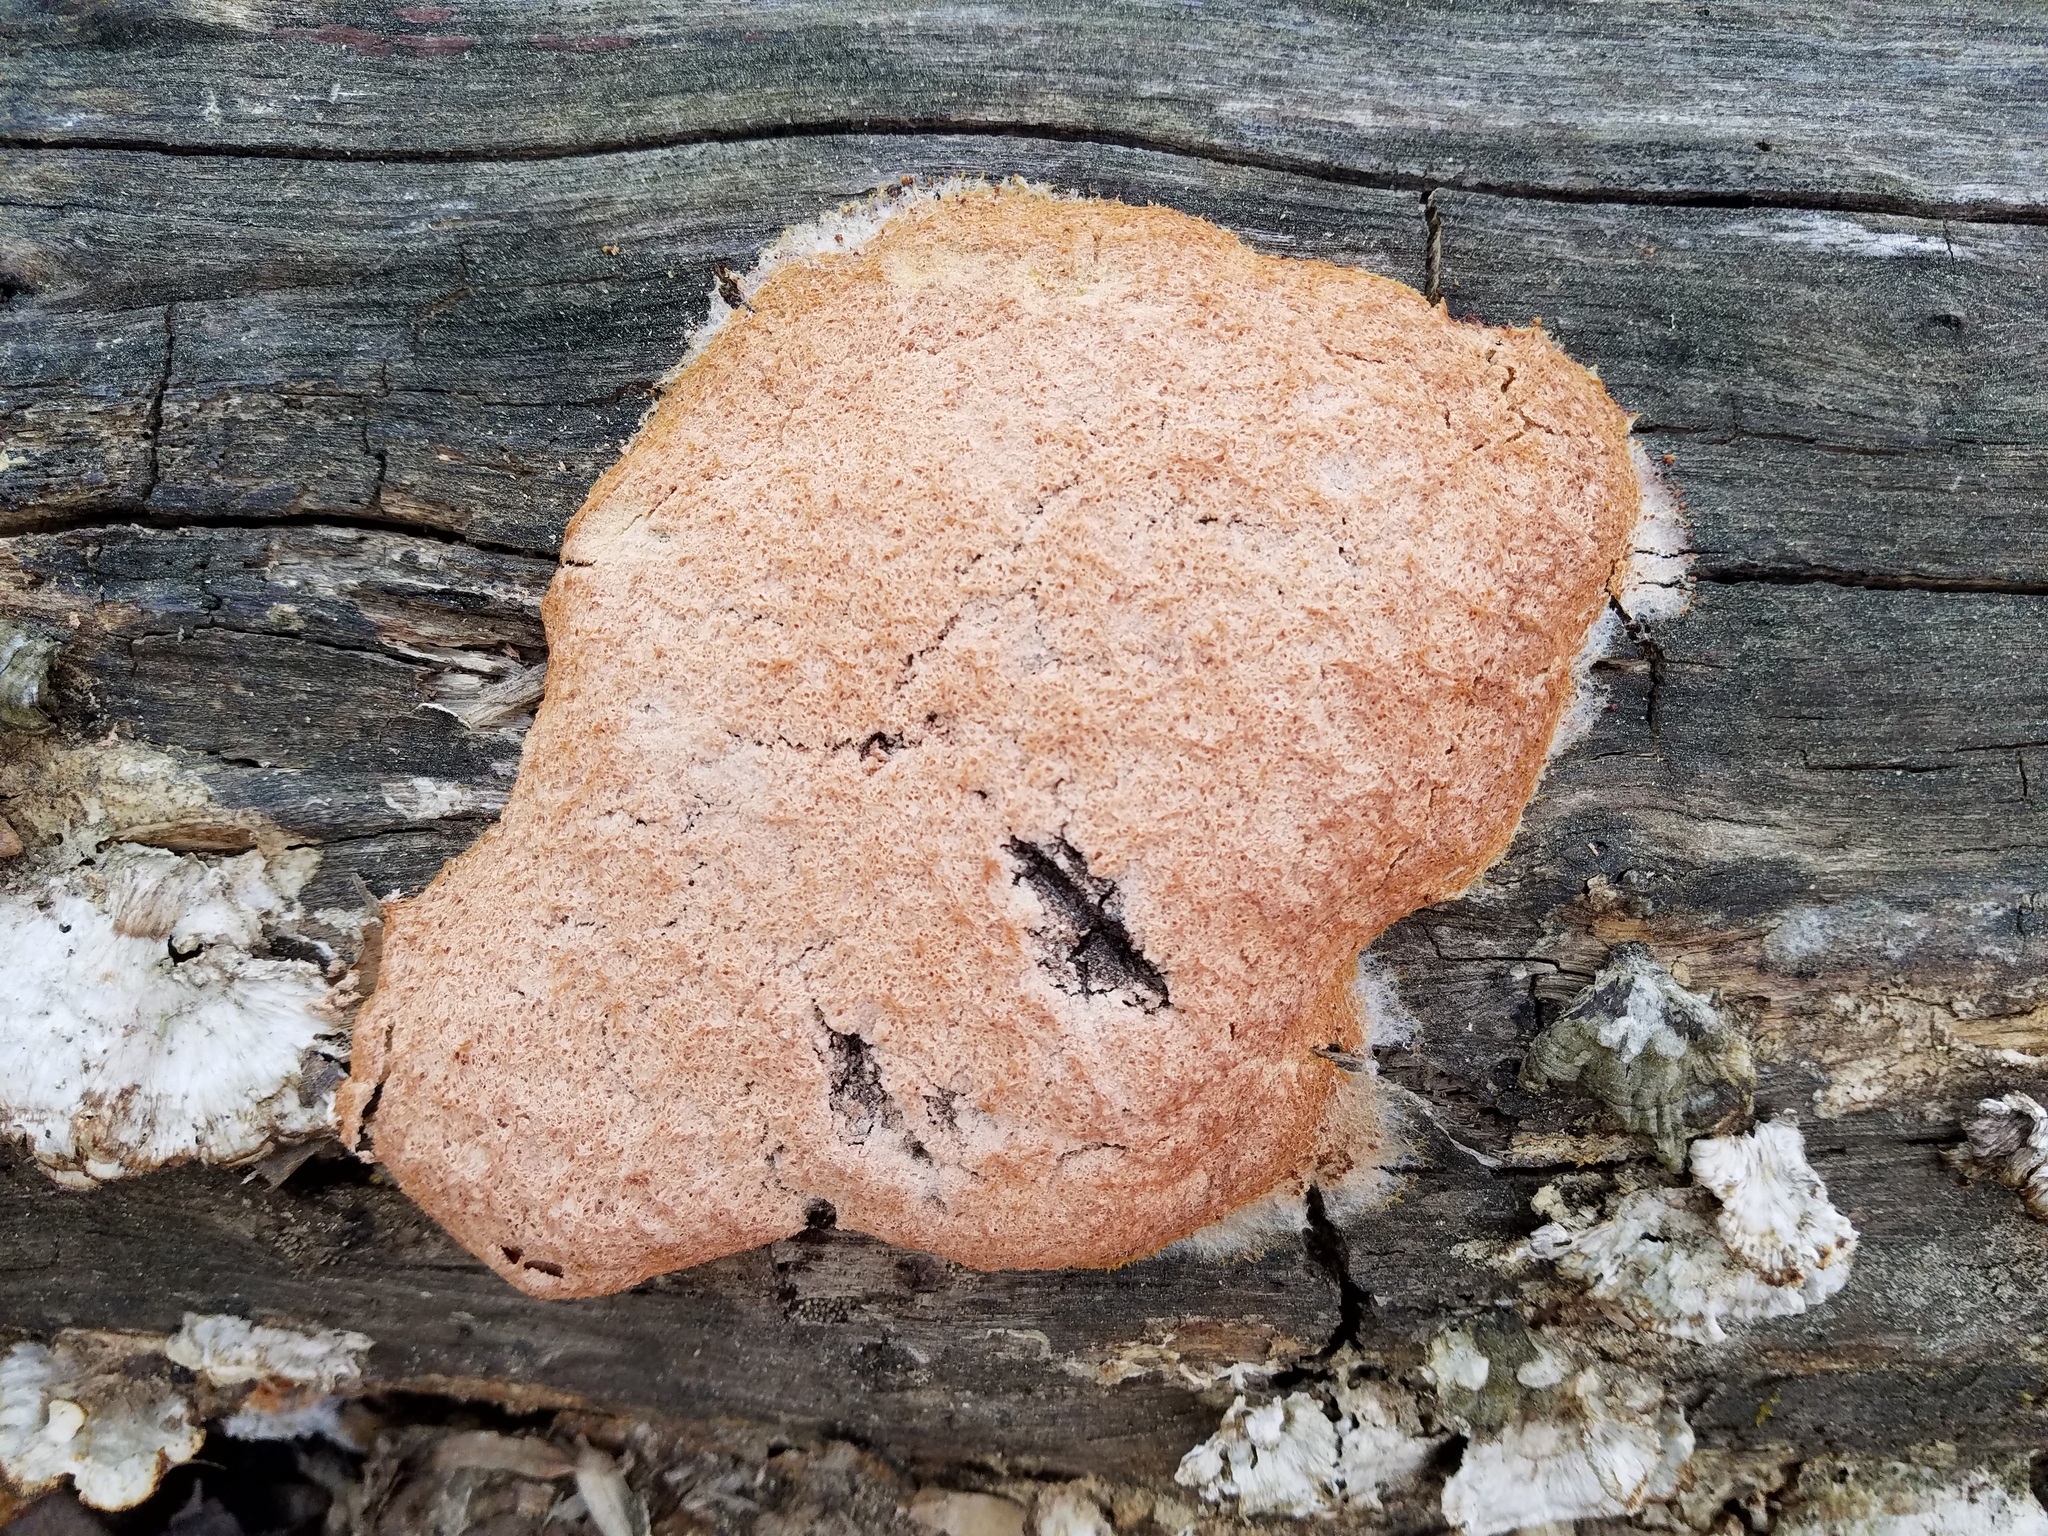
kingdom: Protozoa
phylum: Mycetozoa
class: Myxomycetes
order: Physarales
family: Physaraceae
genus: Fuligo
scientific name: Fuligo septica
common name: Dog vomit slime mold
